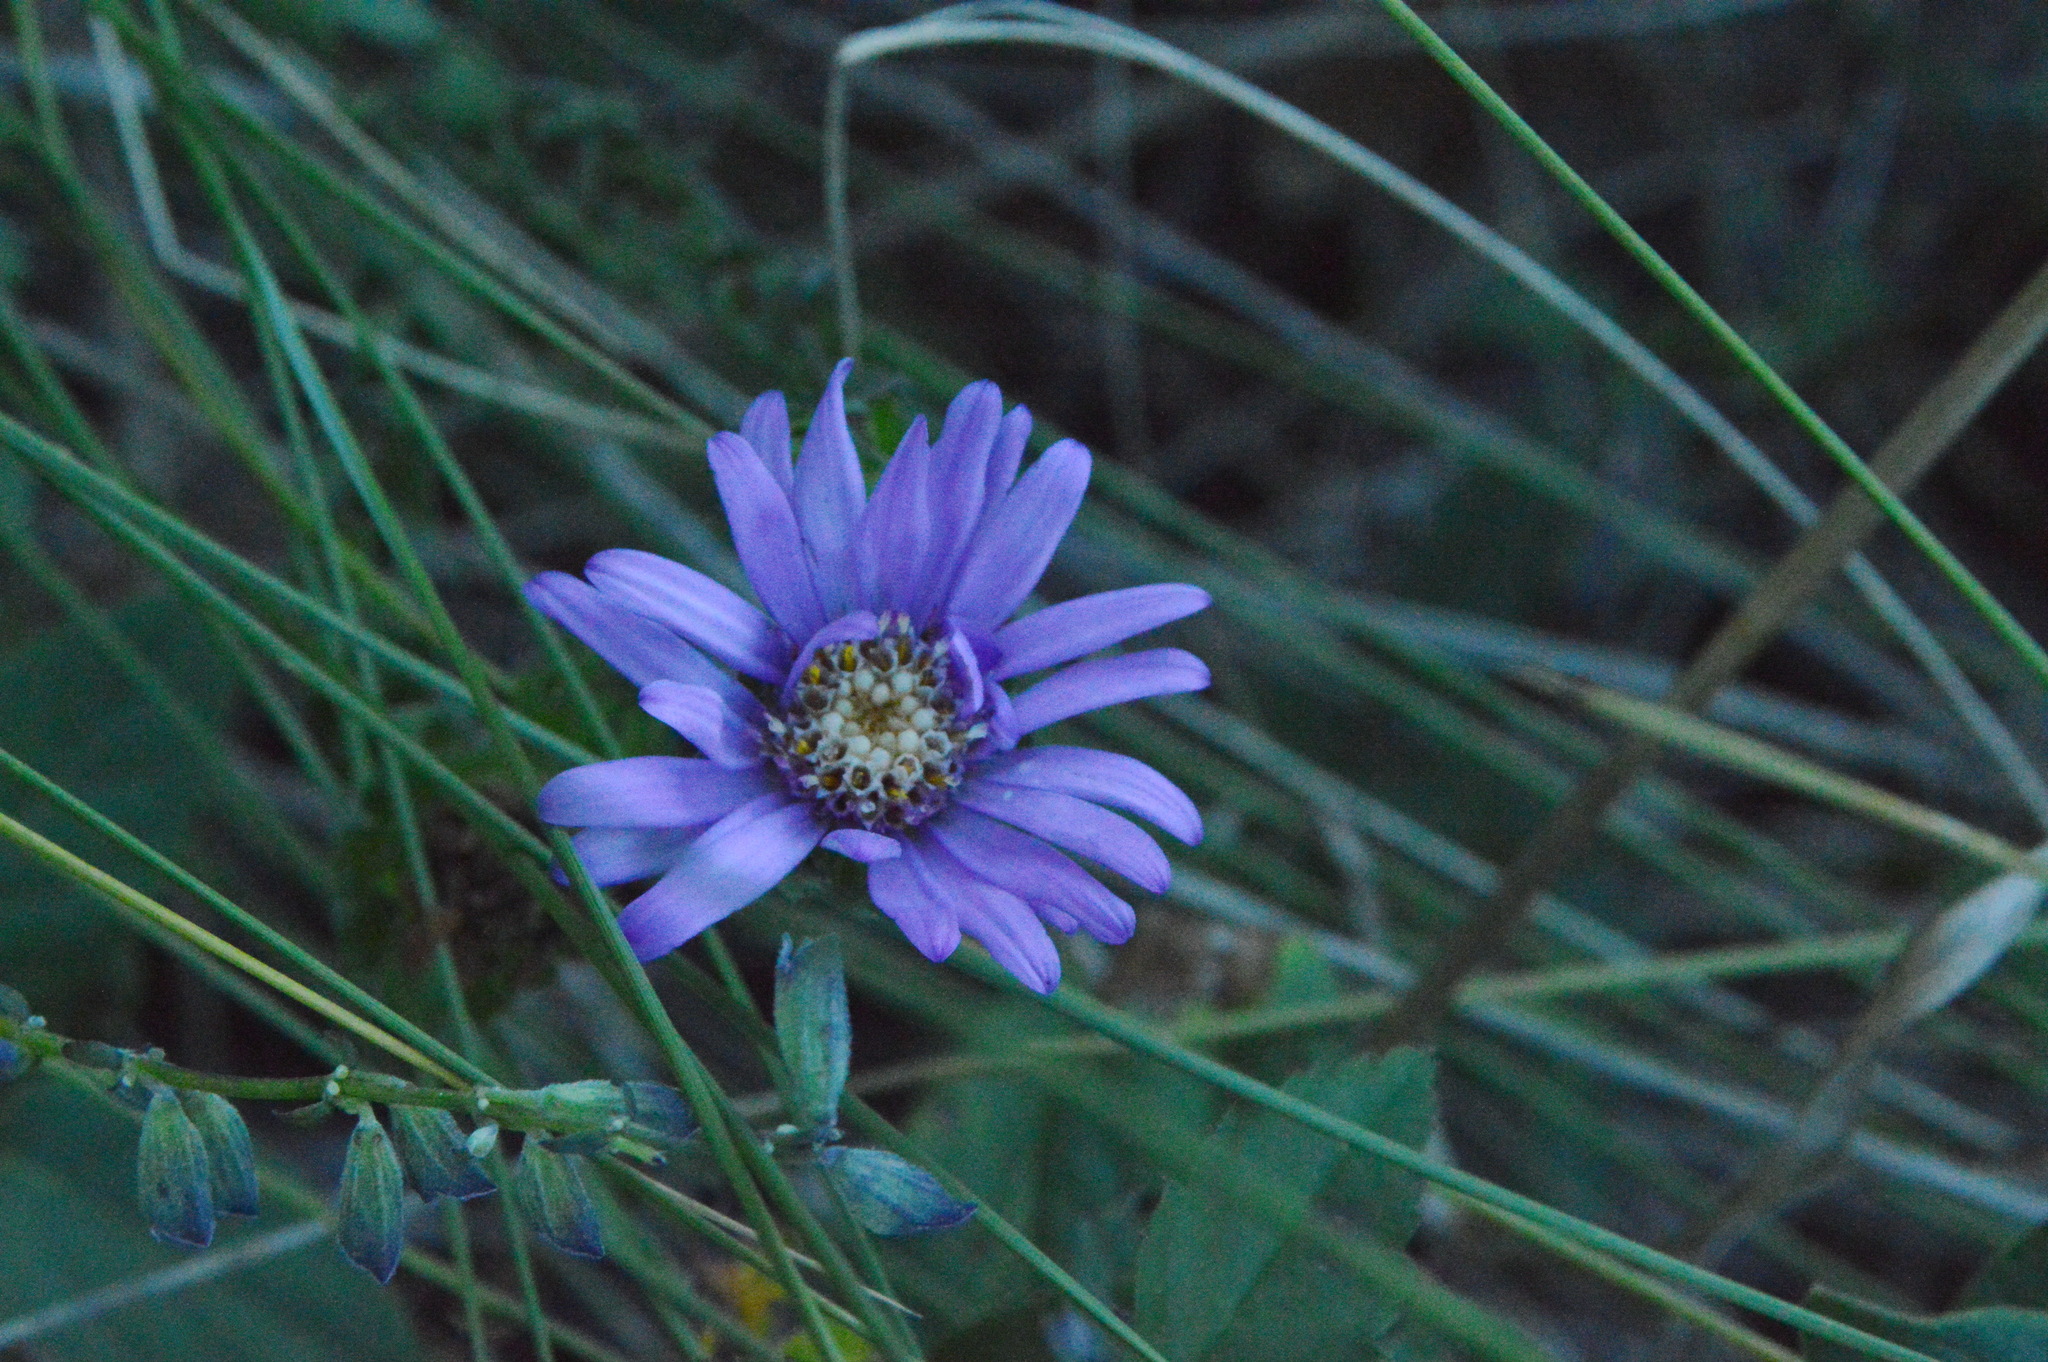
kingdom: Plantae
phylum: Tracheophyta
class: Magnoliopsida
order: Asterales
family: Asteraceae
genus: Symphyotrichum
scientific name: Symphyotrichum pratense
